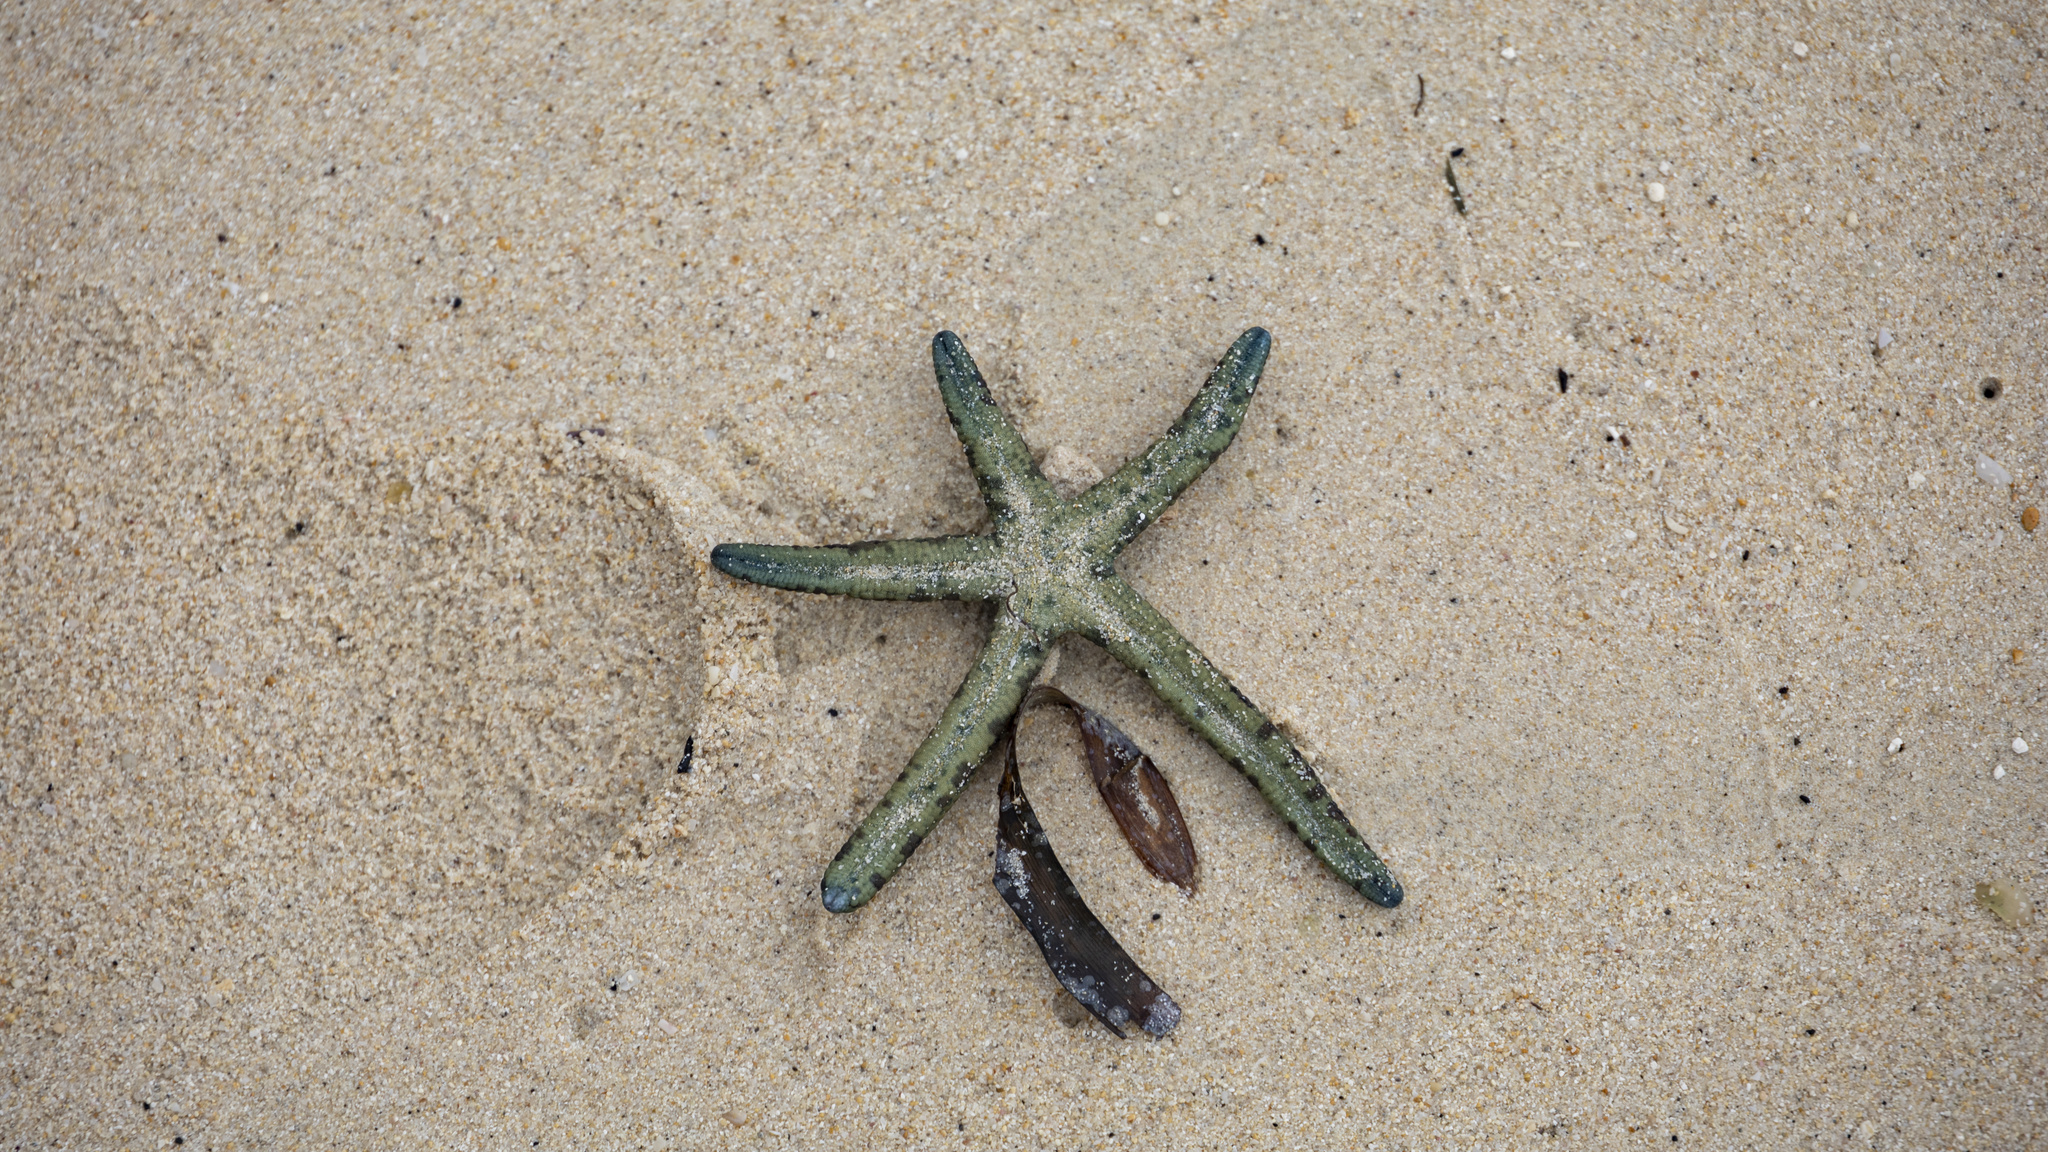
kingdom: Animalia
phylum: Echinodermata
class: Asteroidea
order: Valvatida
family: Ophidiasteridae
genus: Linckia
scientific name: Linckia multifora
